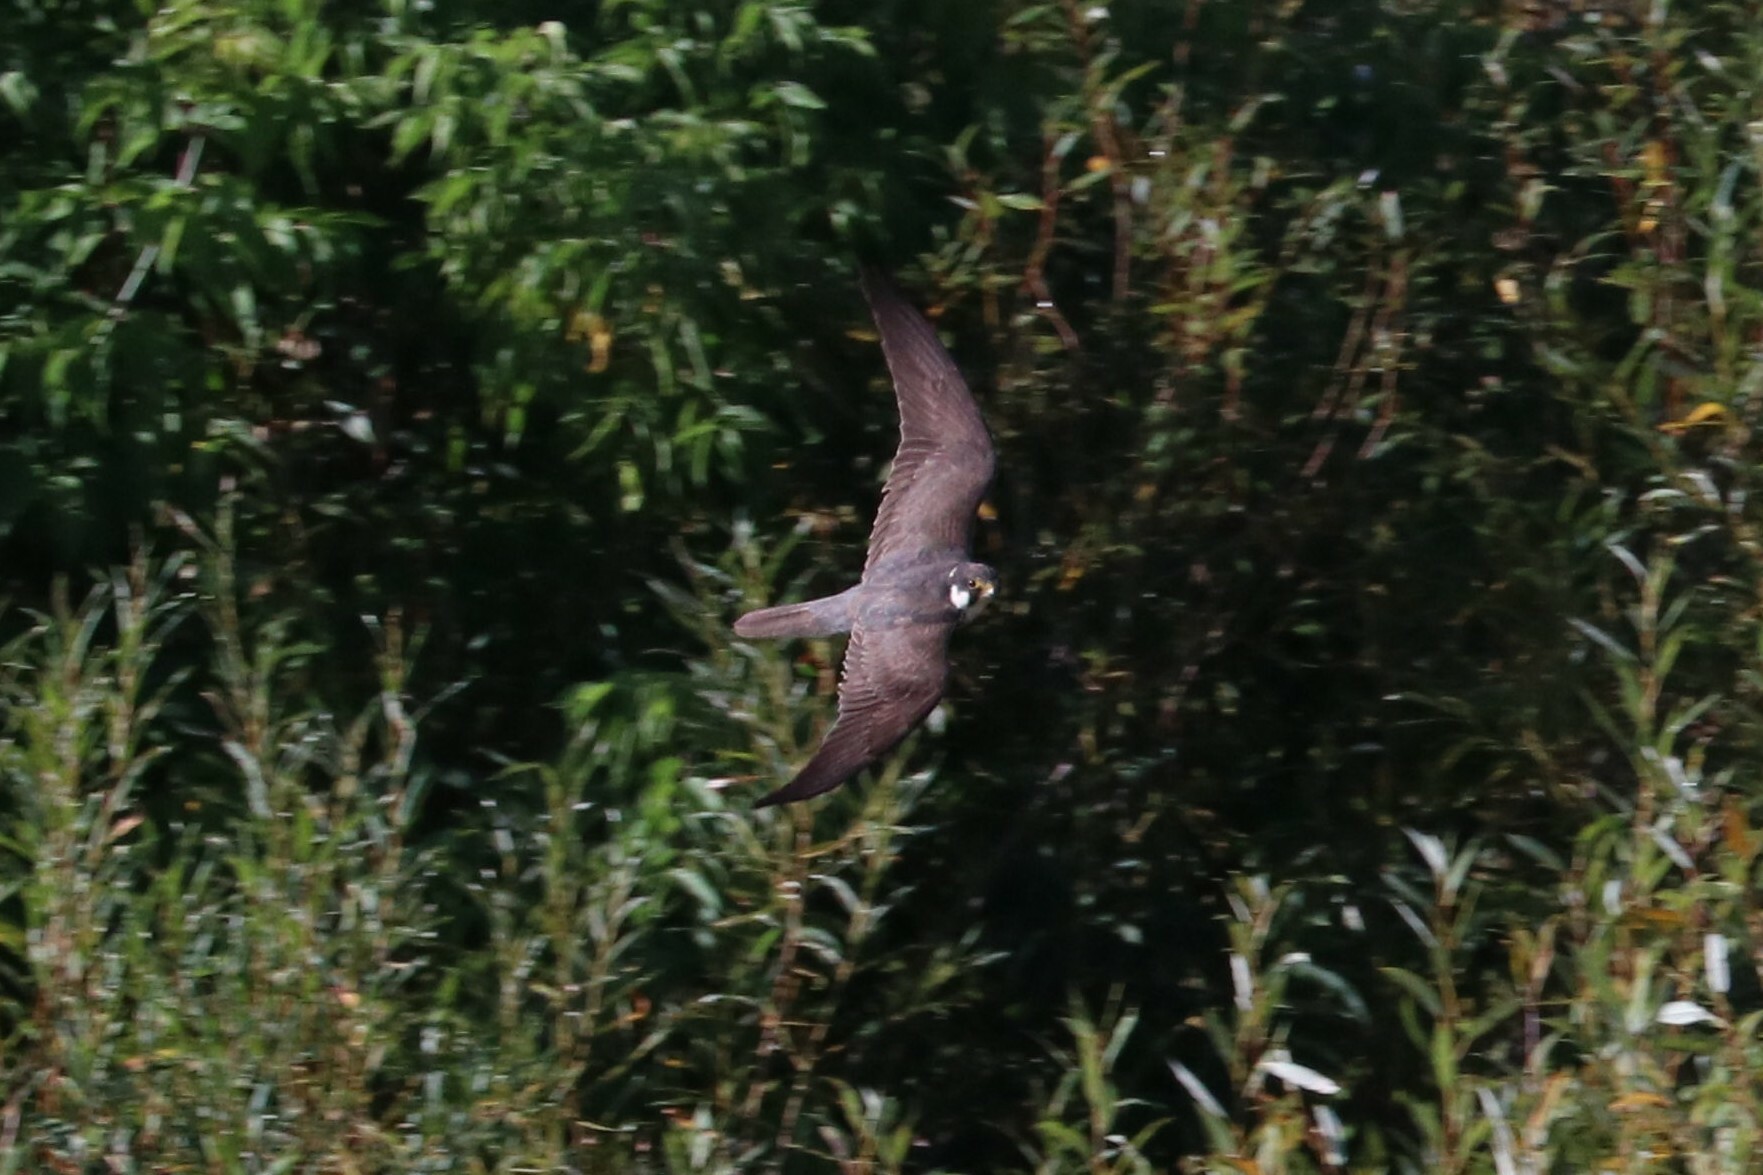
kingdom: Animalia
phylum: Chordata
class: Aves
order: Falconiformes
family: Falconidae
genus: Falco
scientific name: Falco subbuteo
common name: Eurasian hobby
